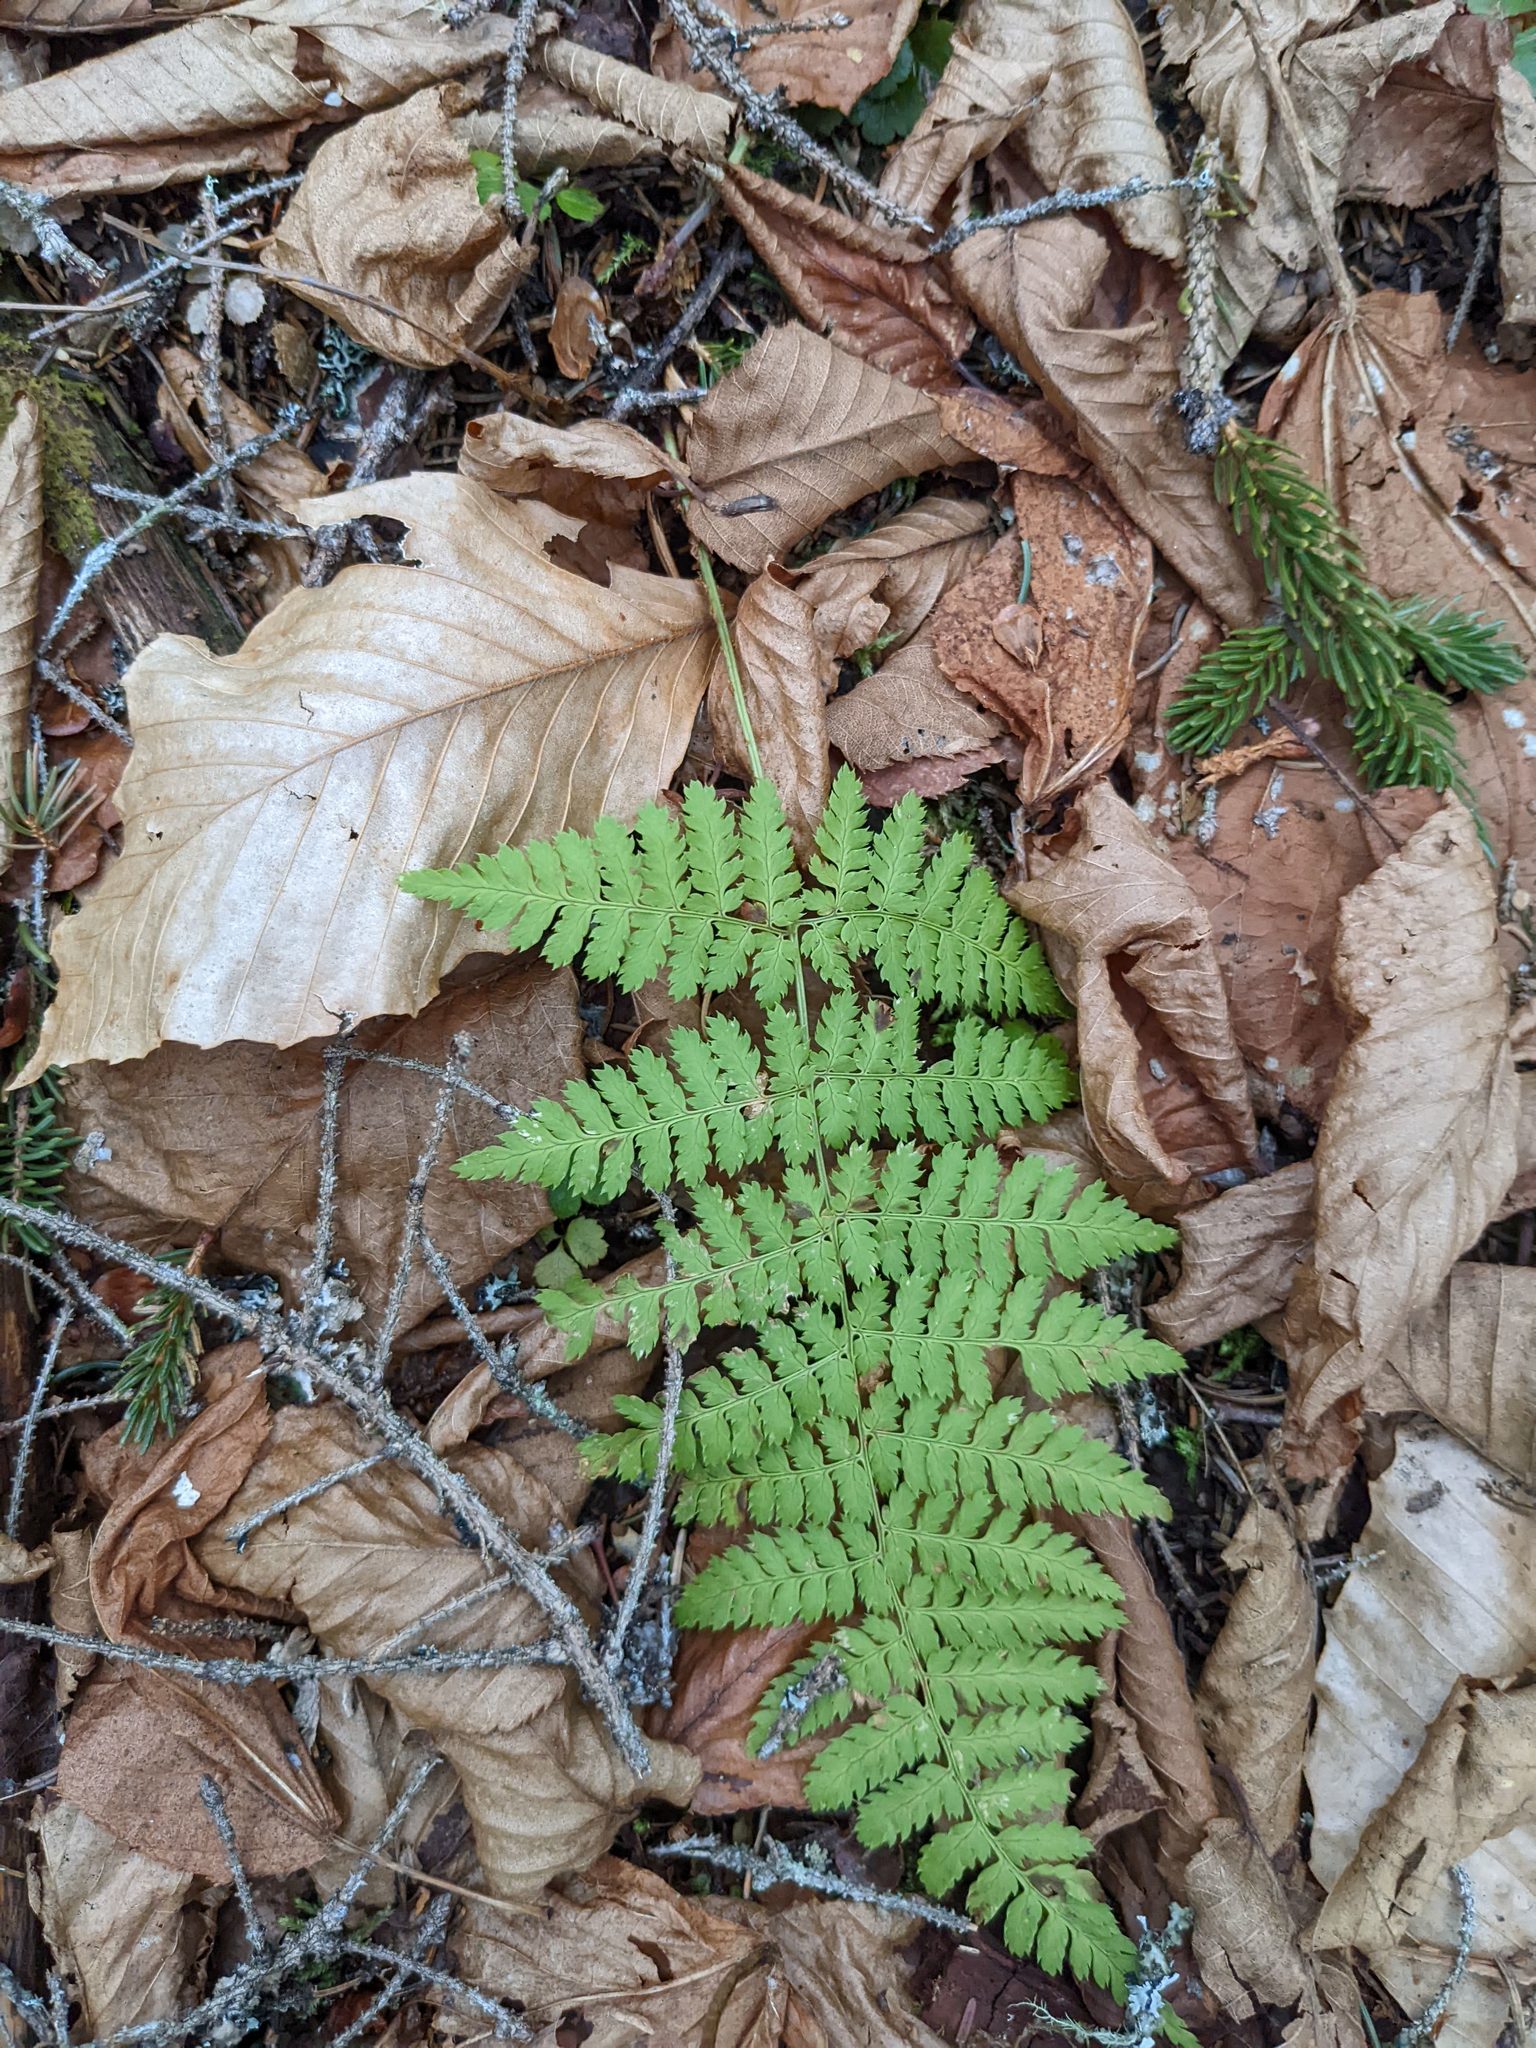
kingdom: Plantae
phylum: Tracheophyta
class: Magnoliopsida
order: Fagales
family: Fagaceae
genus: Fagus
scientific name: Fagus grandifolia
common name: American beech
